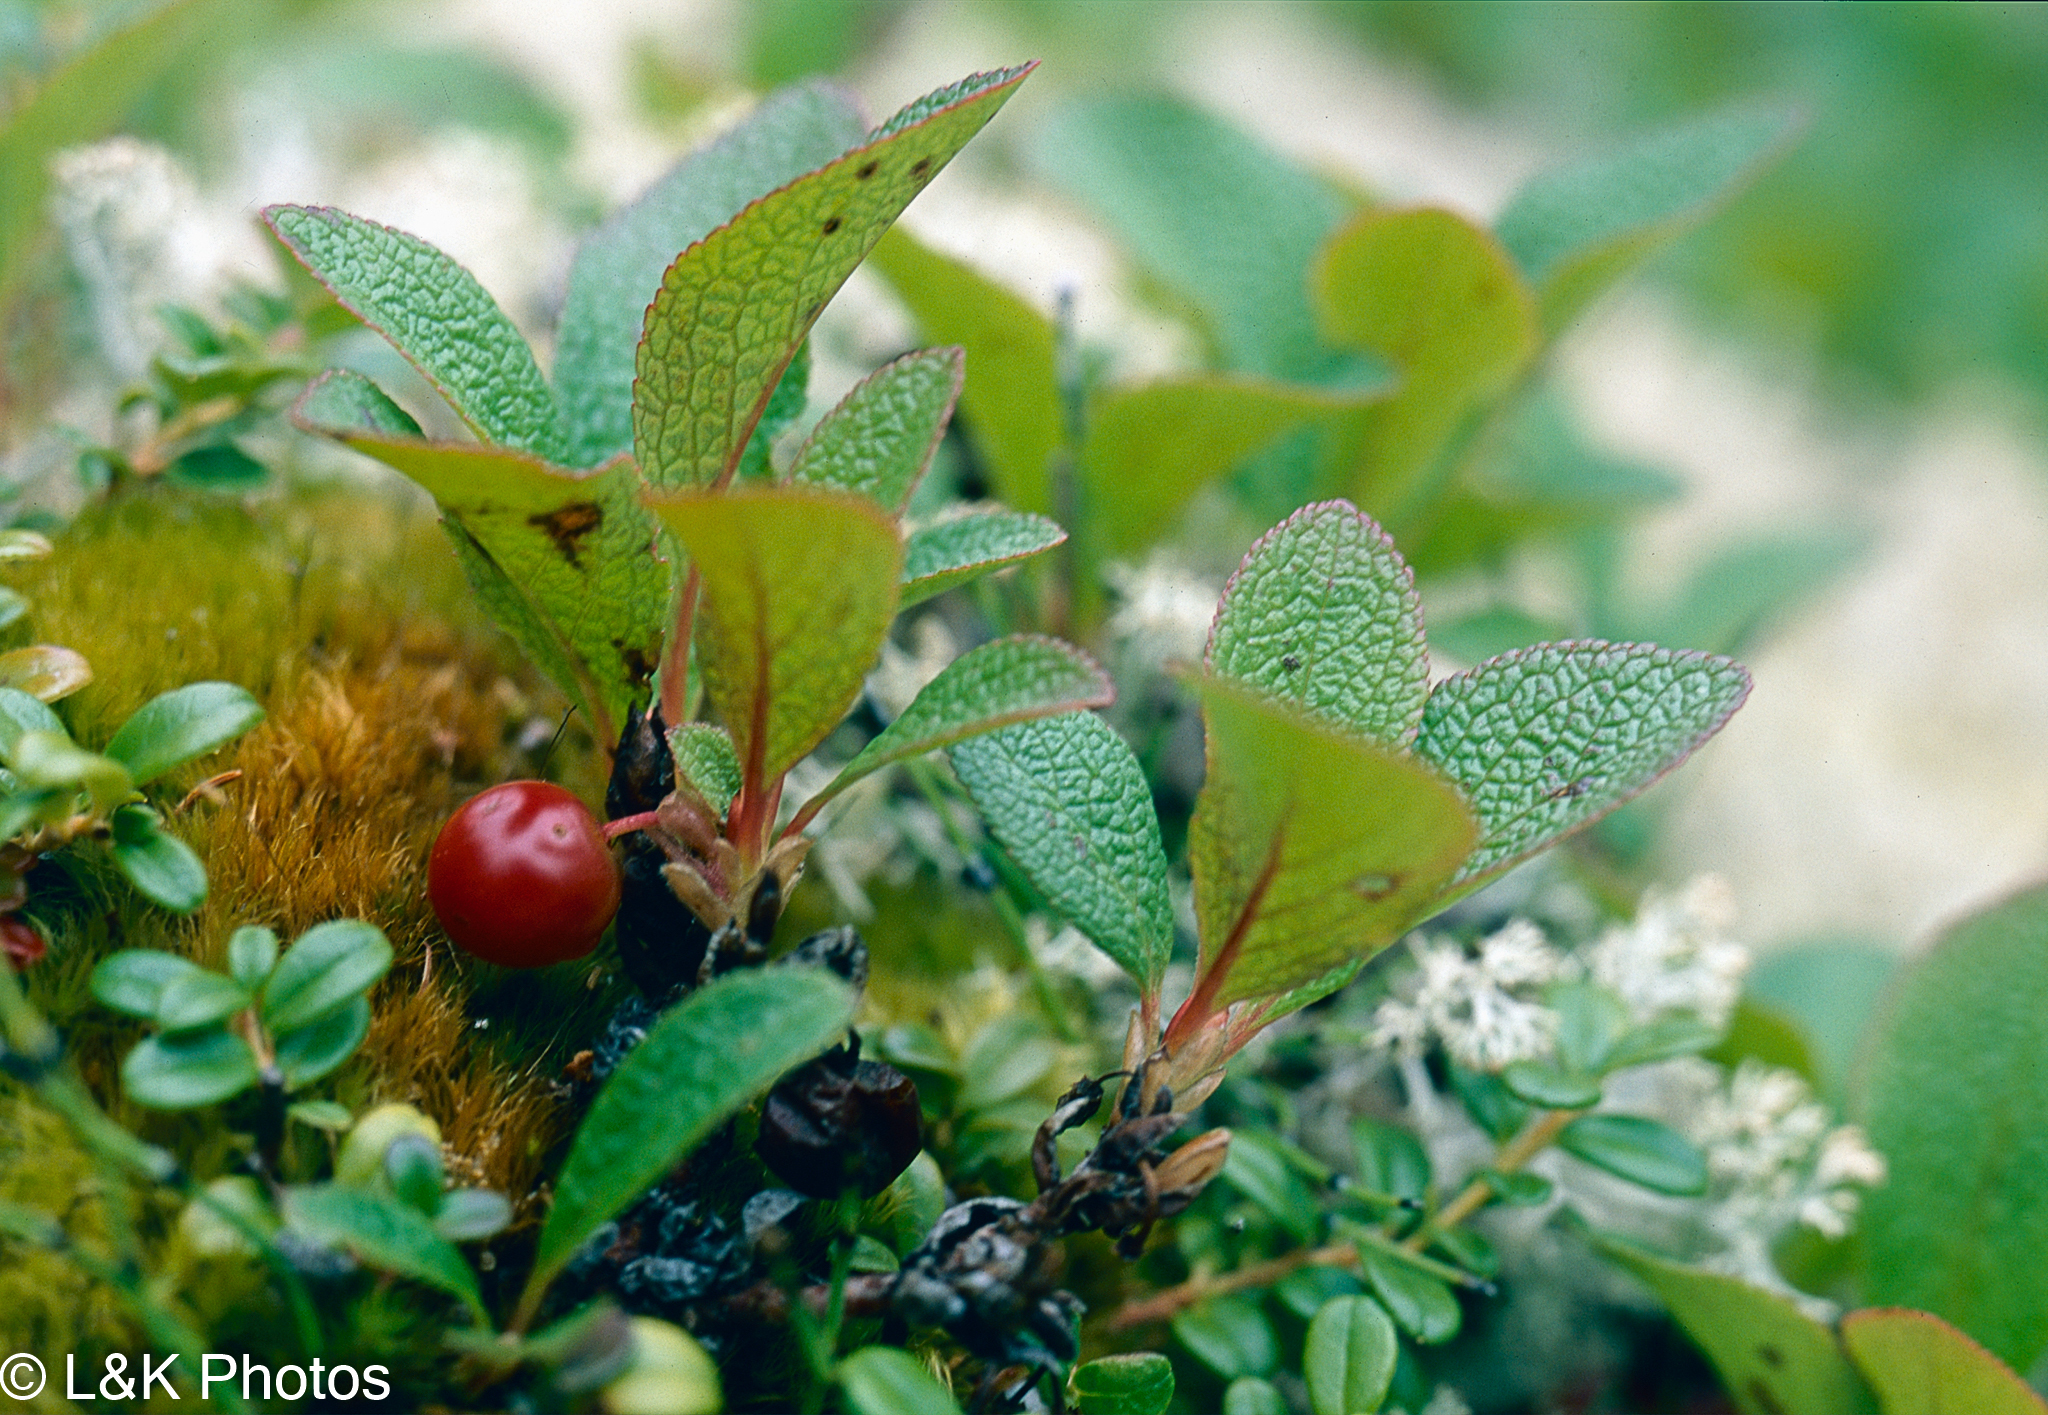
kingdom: Plantae
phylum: Tracheophyta
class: Magnoliopsida
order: Ericales
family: Ericaceae
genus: Arctostaphylos
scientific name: Arctostaphylos rubra
